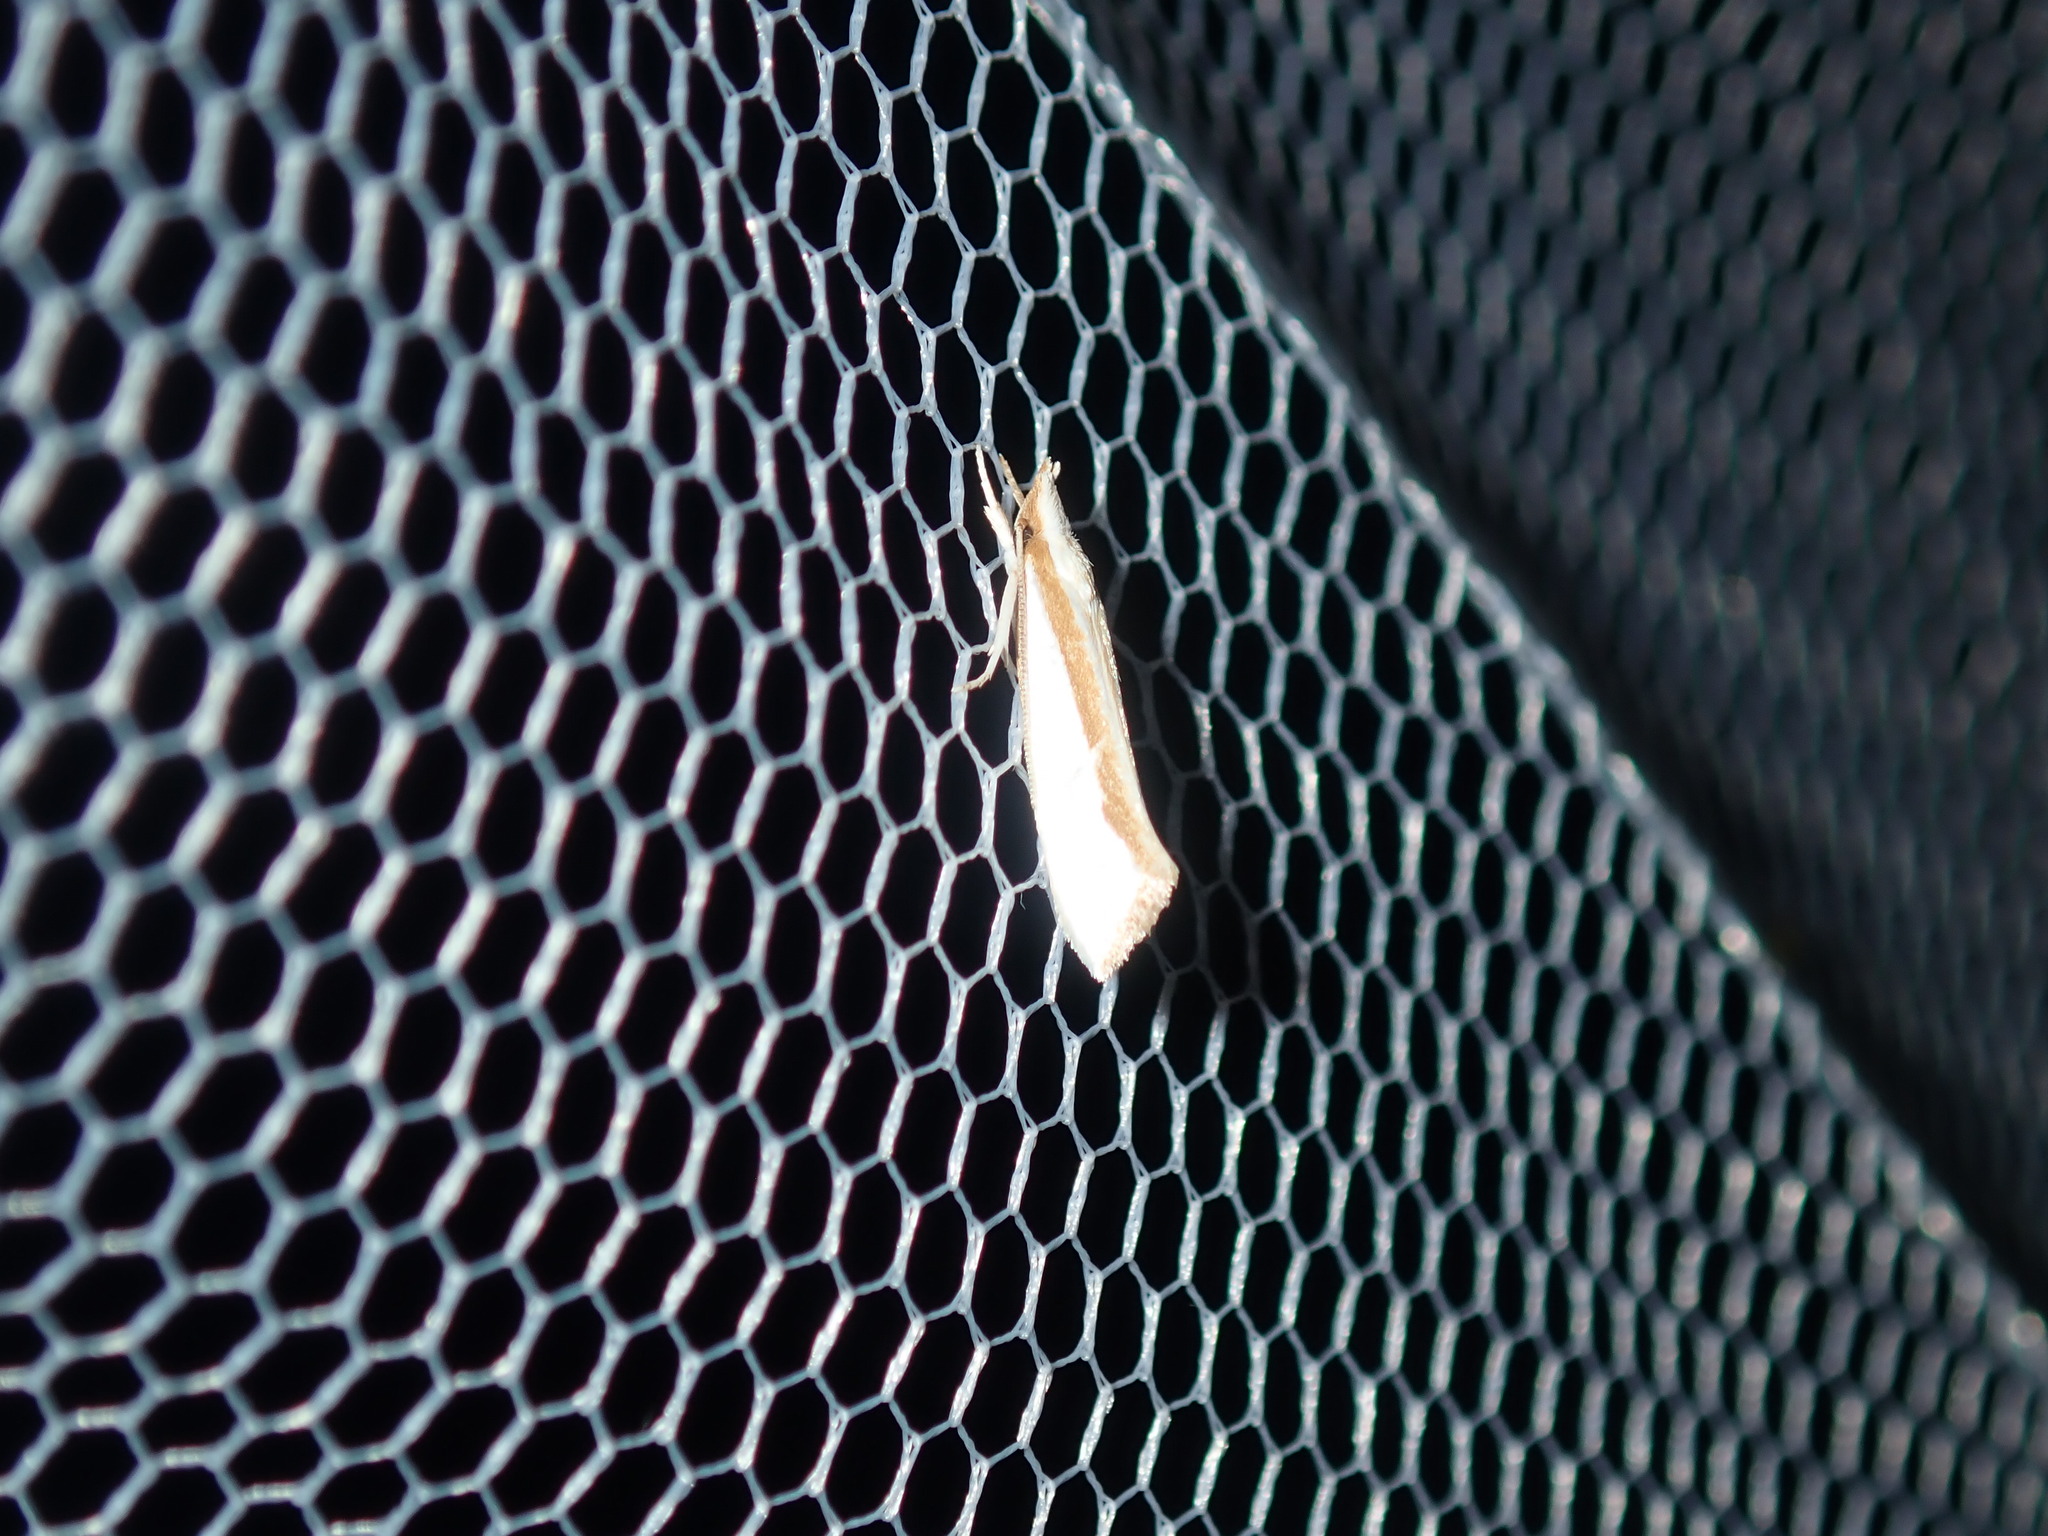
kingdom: Animalia
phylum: Arthropoda
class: Insecta
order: Lepidoptera
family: Depressariidae
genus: Thudaca
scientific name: Thudaca circumdatella
